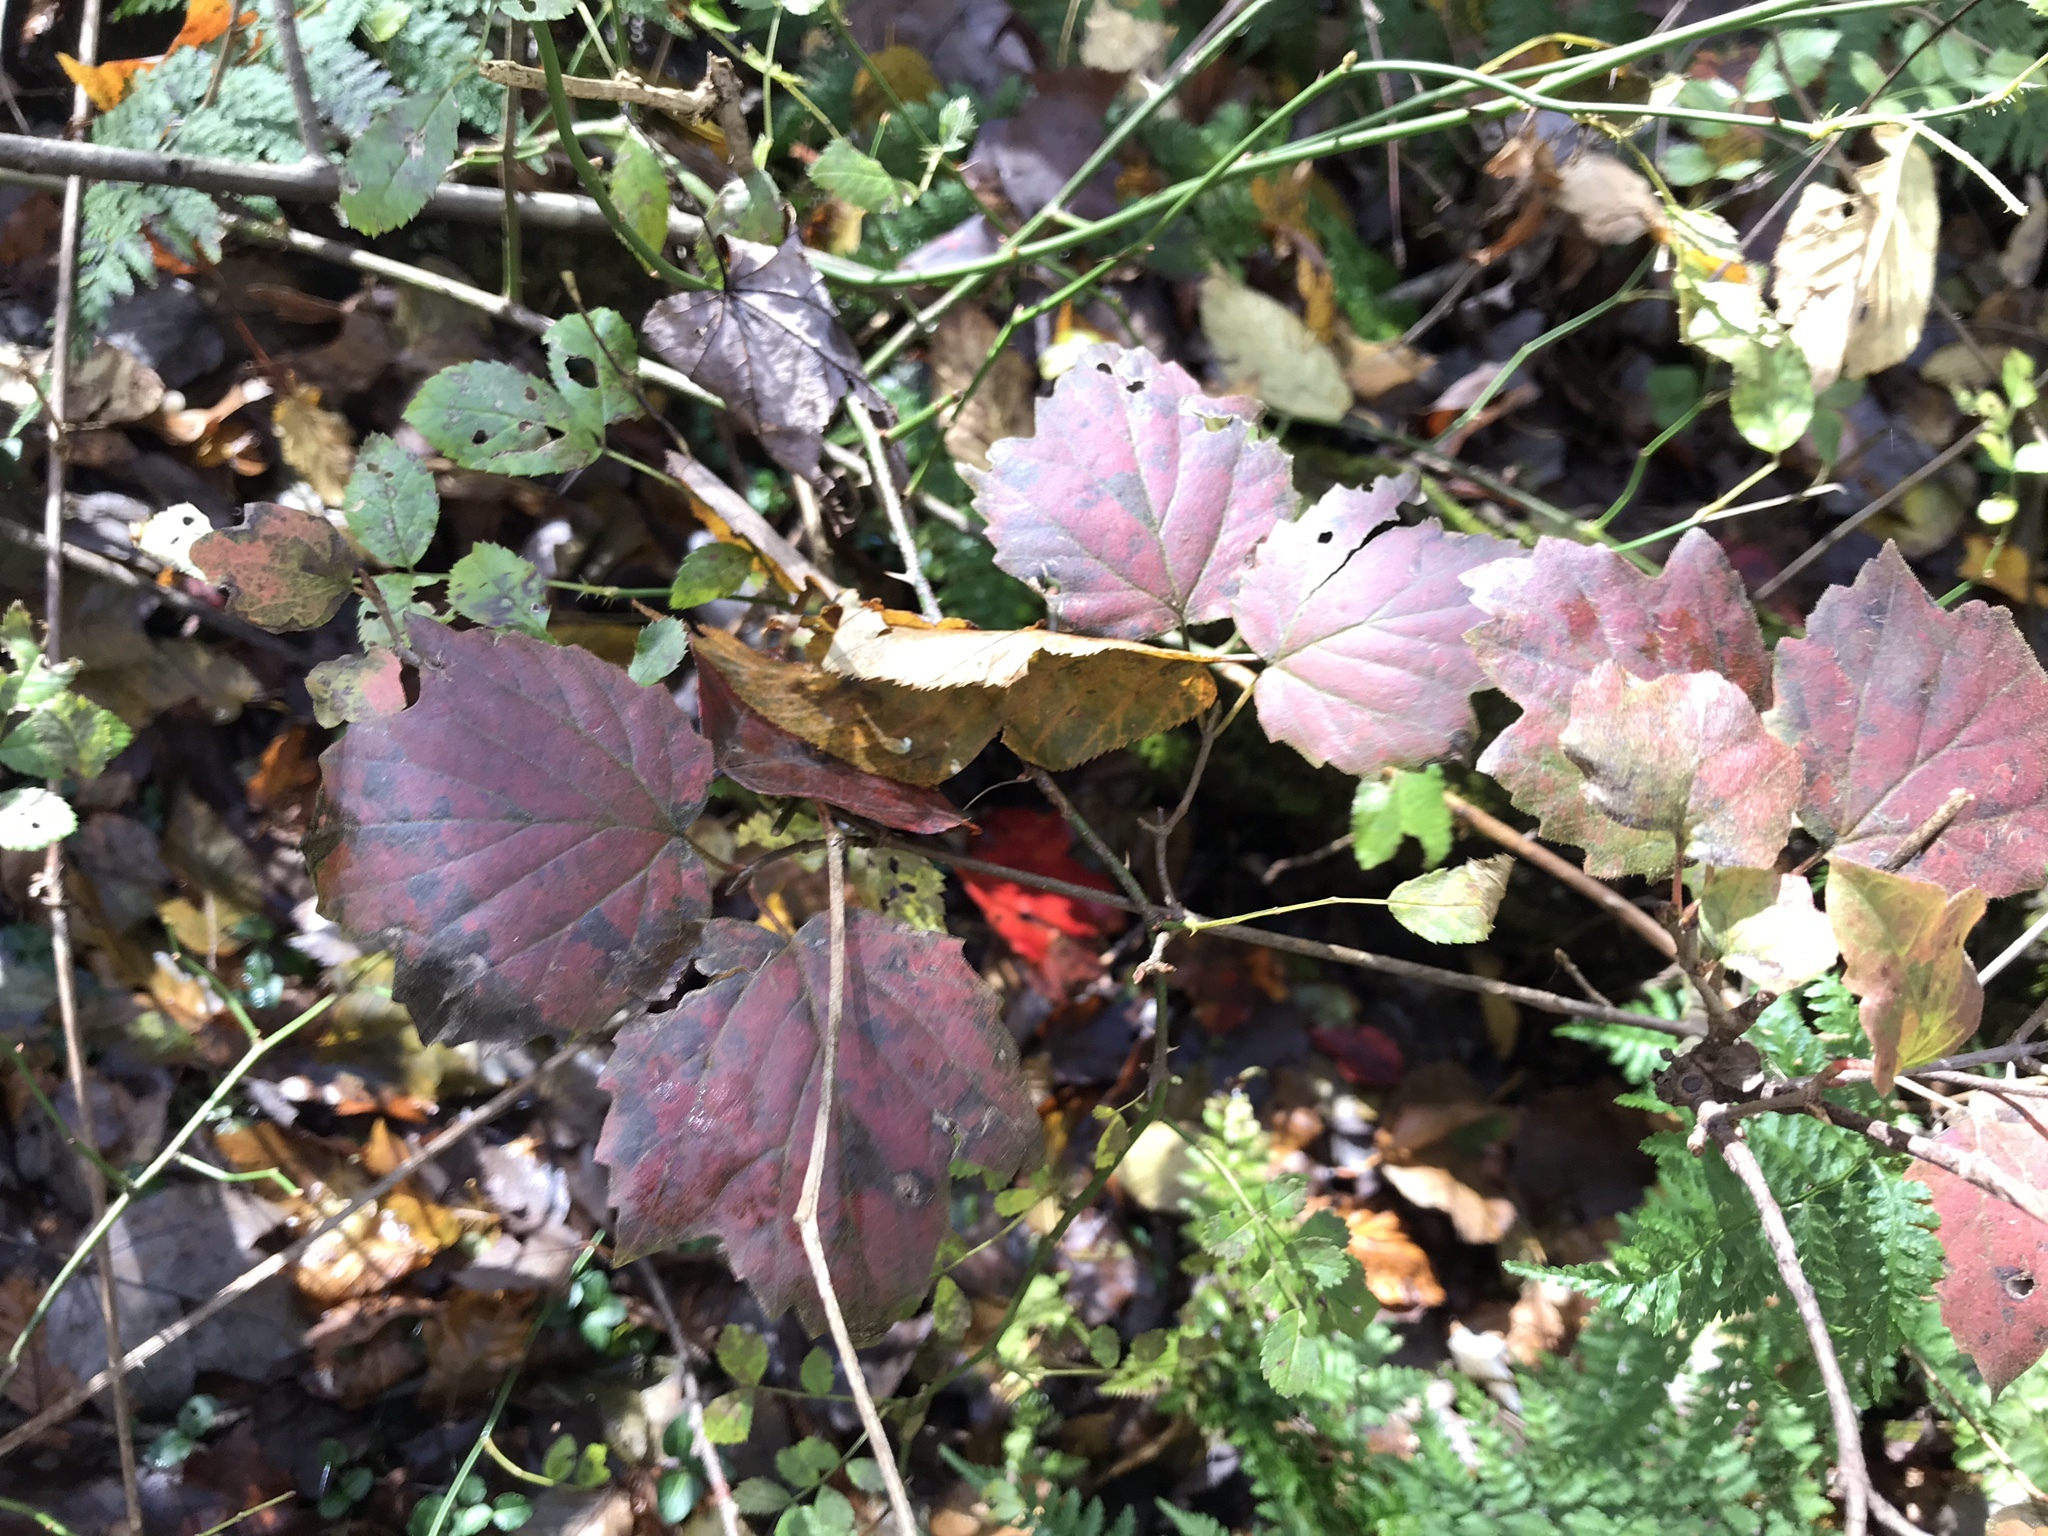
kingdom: Plantae
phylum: Tracheophyta
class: Magnoliopsida
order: Dipsacales
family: Viburnaceae
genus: Viburnum
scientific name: Viburnum acerifolium
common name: Dockmackie
